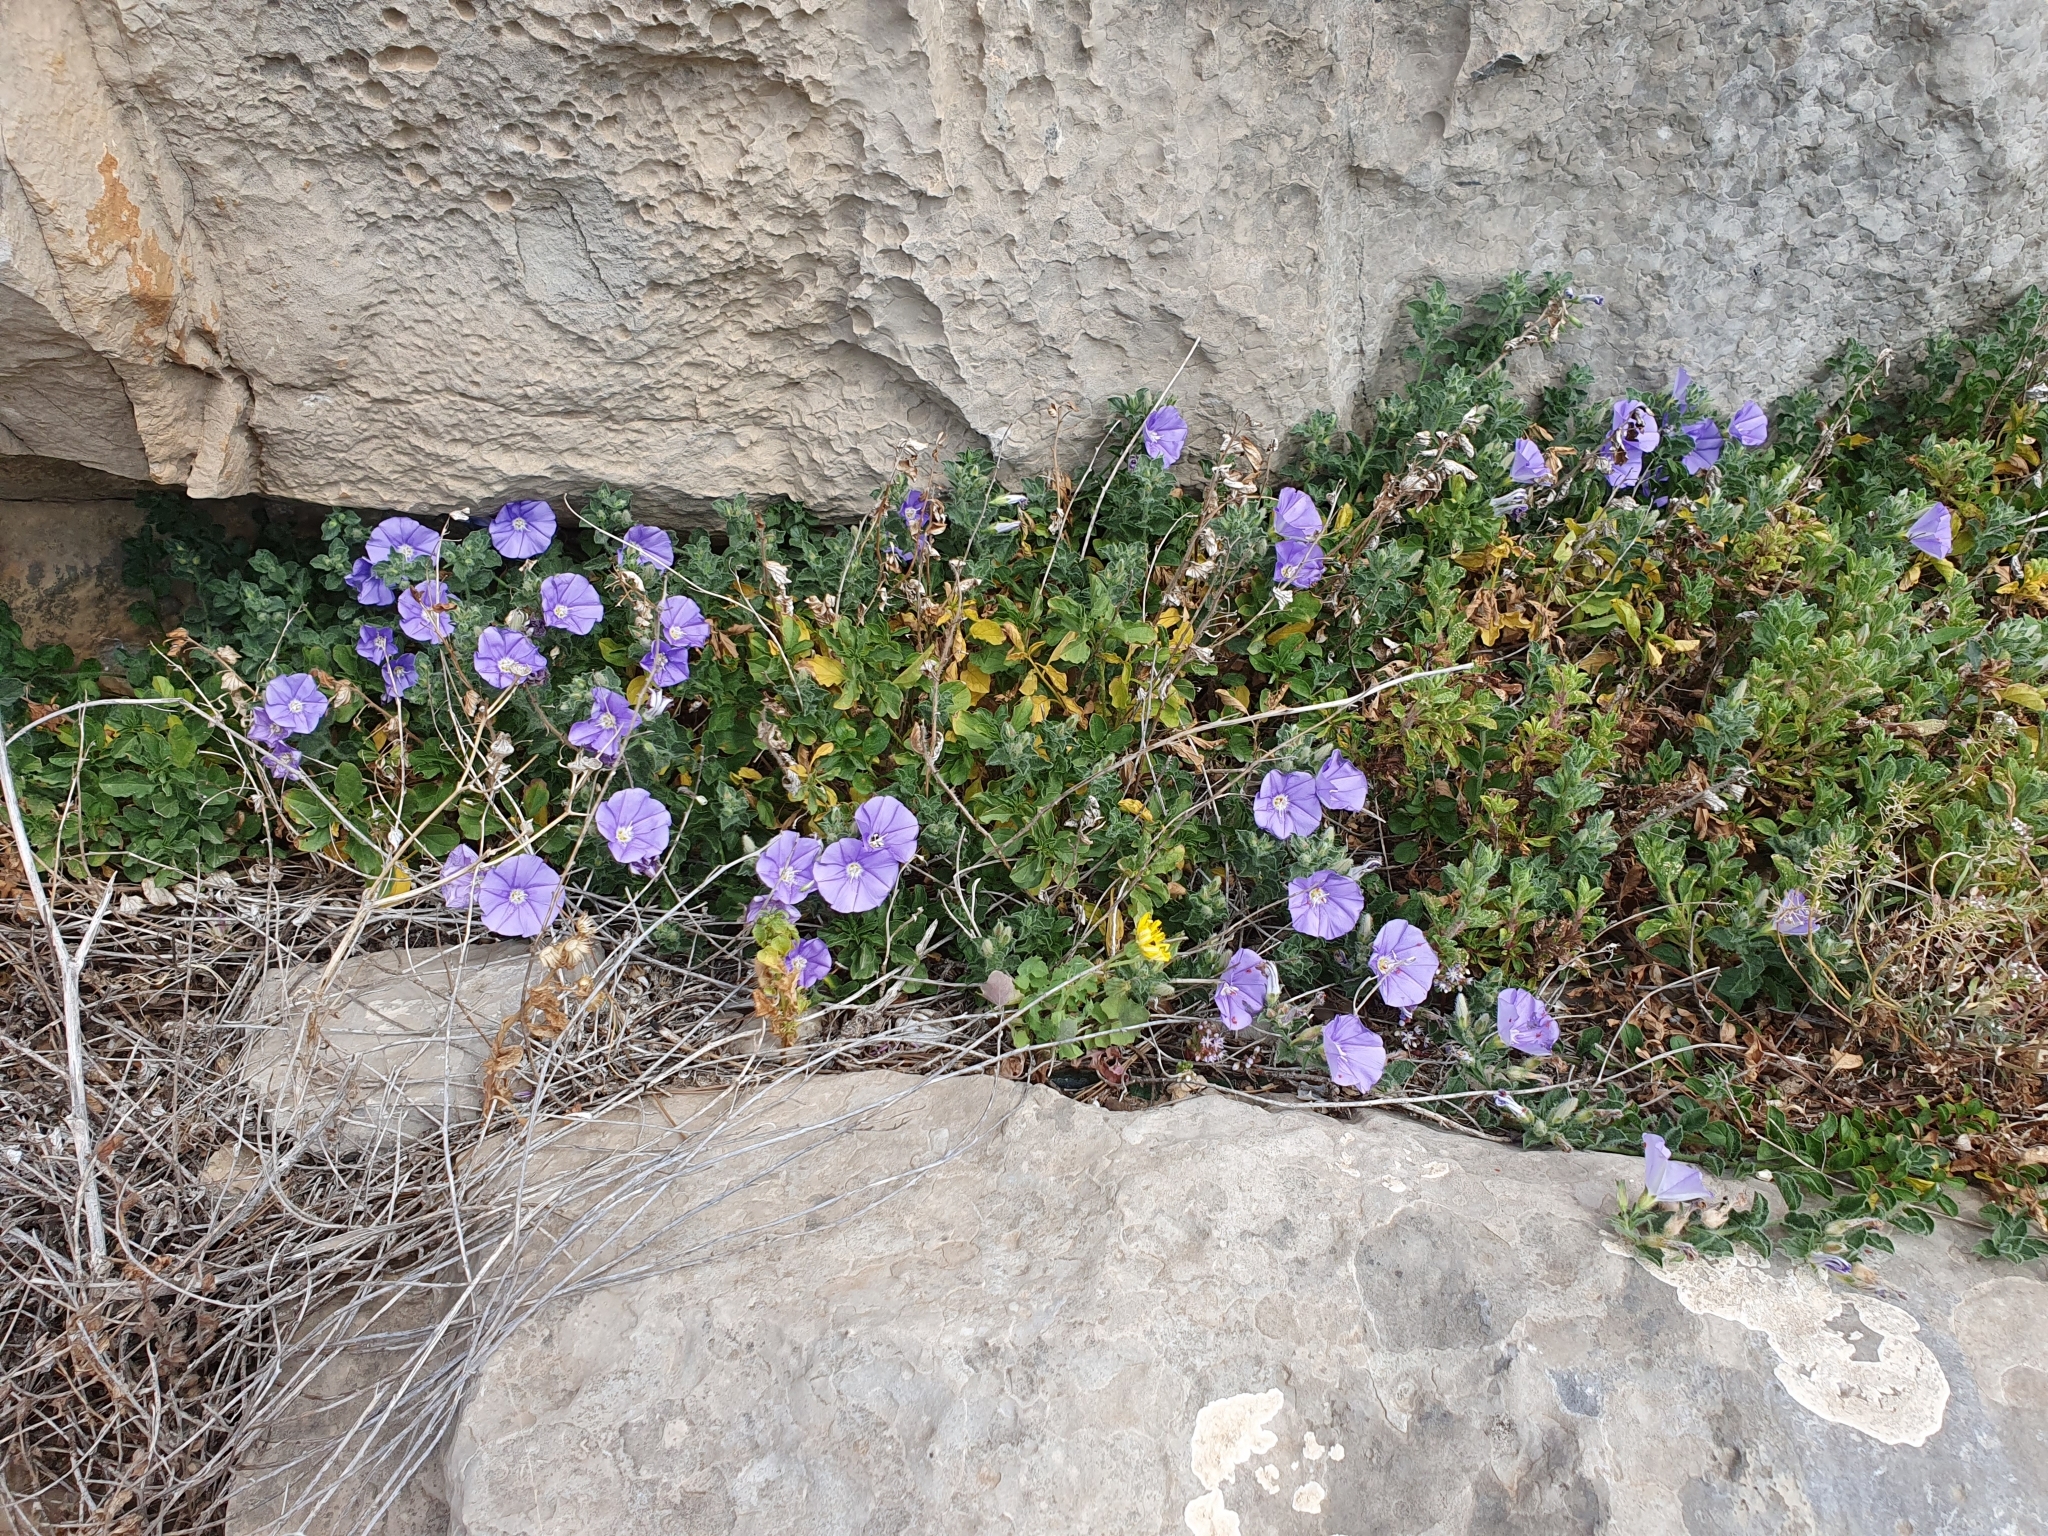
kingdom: Plantae
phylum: Tracheophyta
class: Magnoliopsida
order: Solanales
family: Convolvulaceae
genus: Convolvulus
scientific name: Convolvulus sabatius
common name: Ground blue-convolvulus
